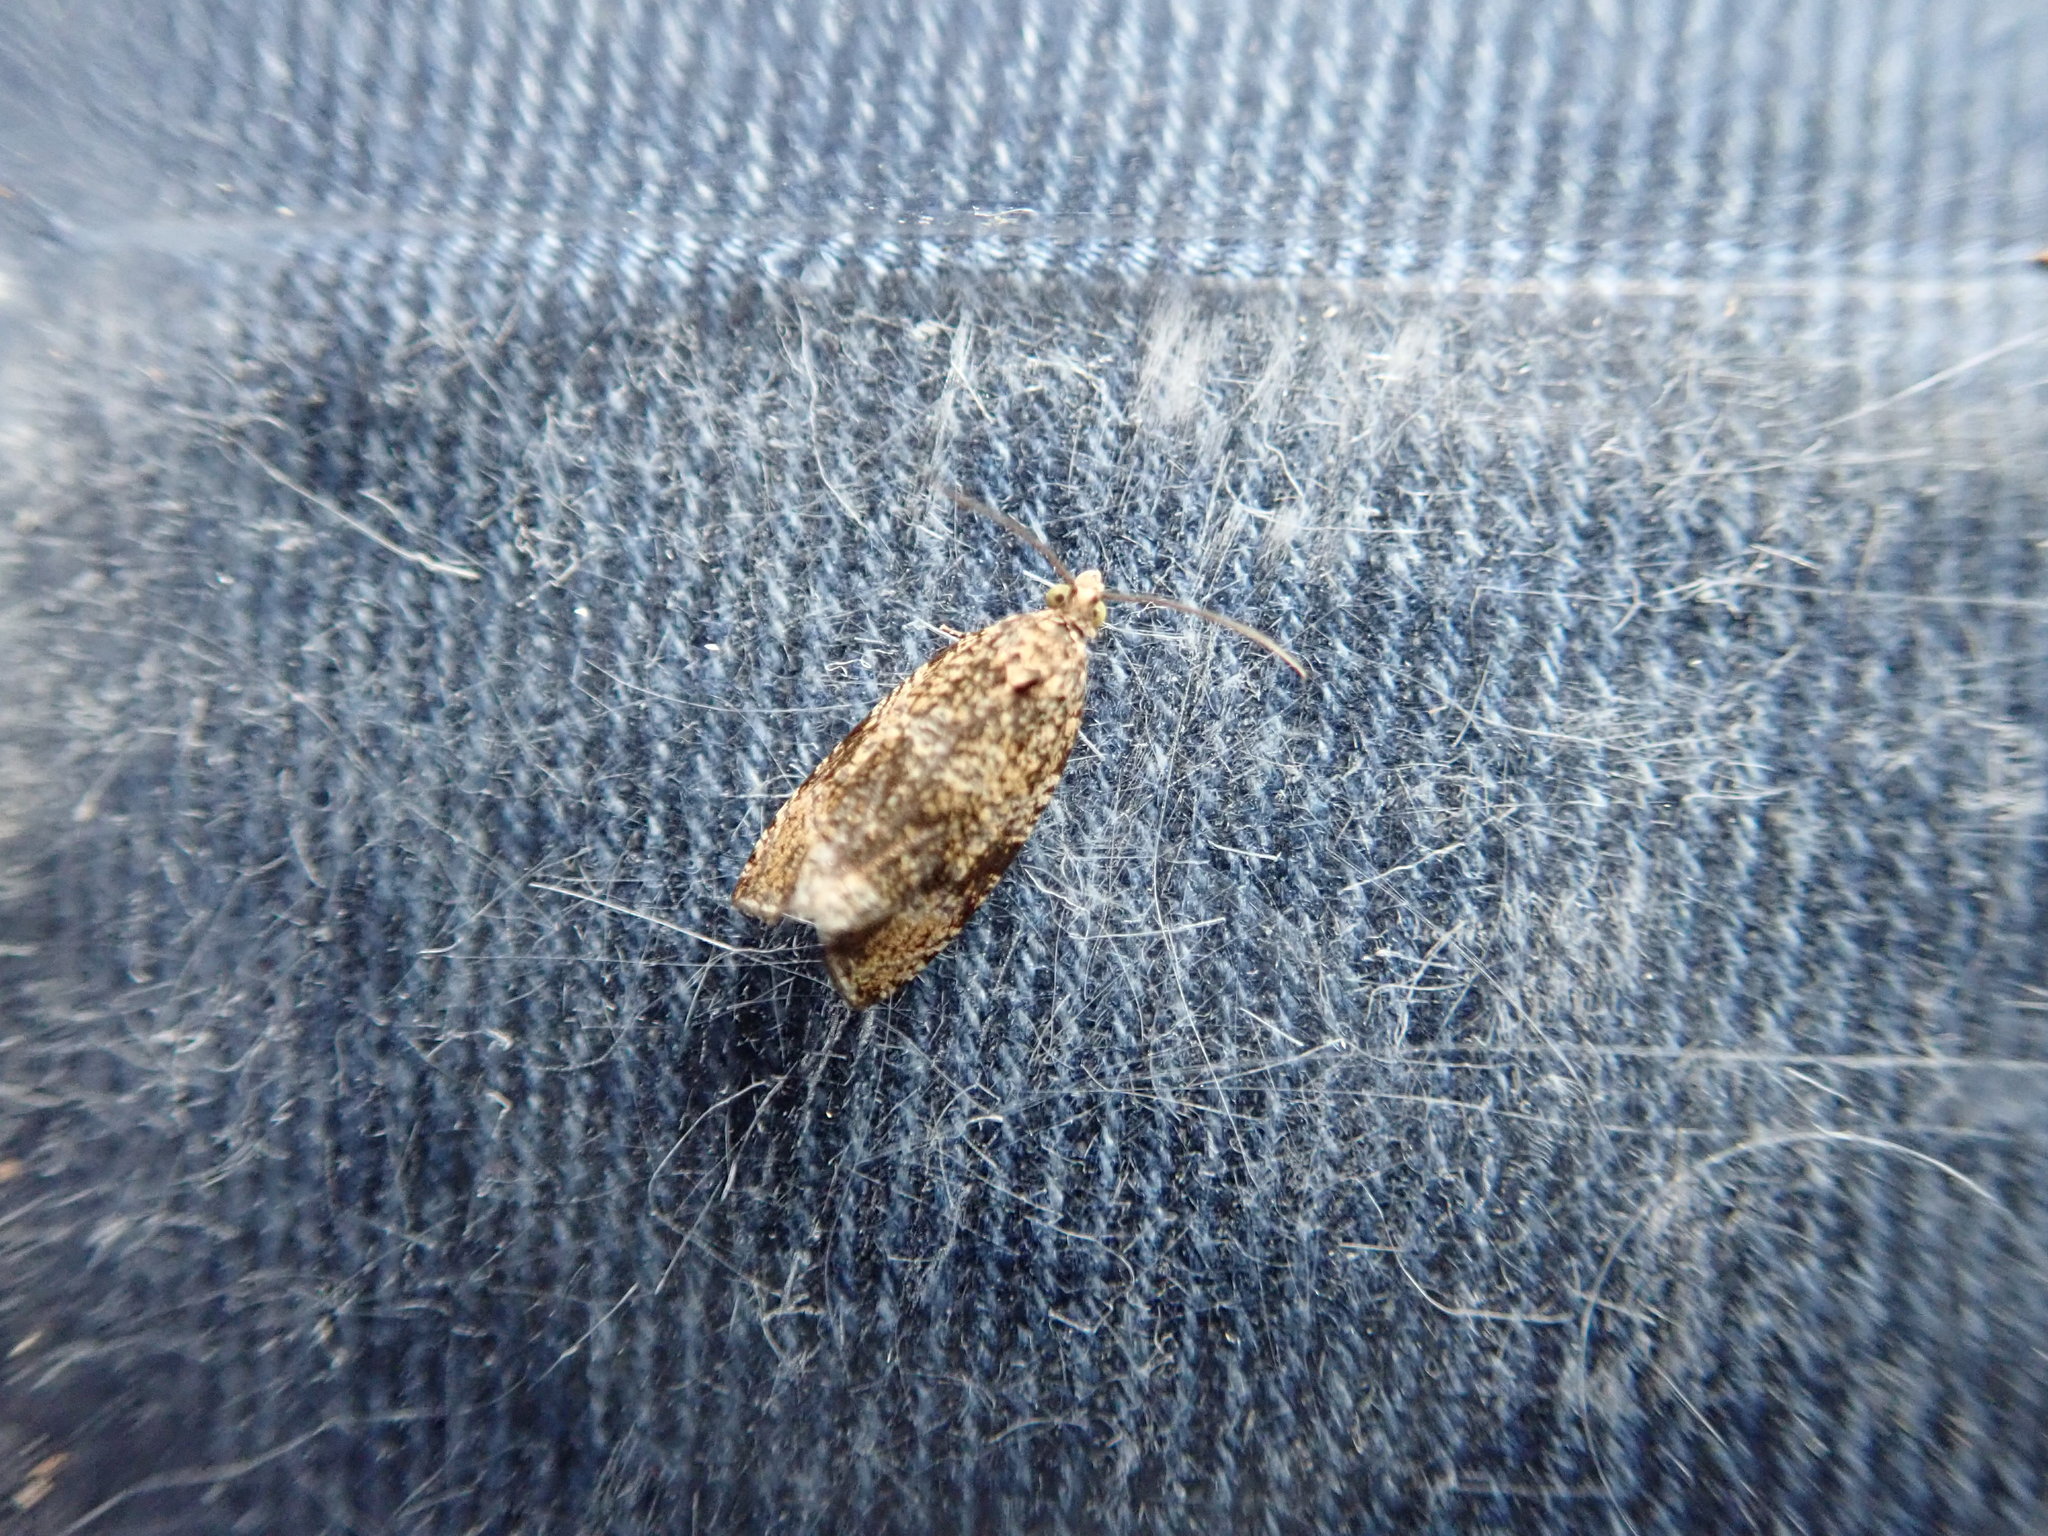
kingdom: Animalia
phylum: Arthropoda
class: Insecta
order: Lepidoptera
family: Tortricidae
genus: Syricoris
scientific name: Syricoris lacunana
